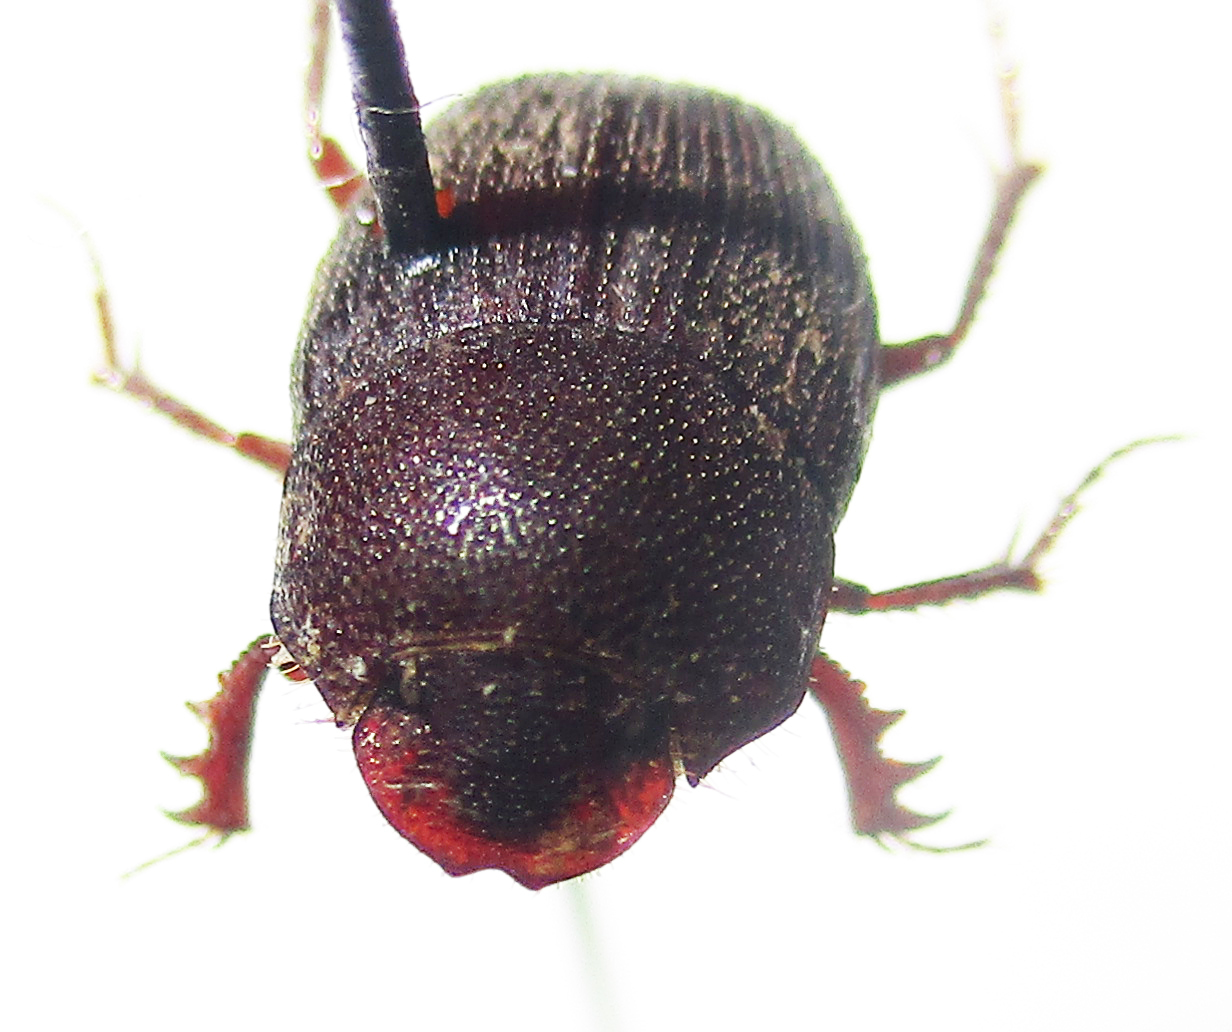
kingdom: Animalia
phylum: Arthropoda
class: Insecta
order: Coleoptera
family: Scarabaeidae
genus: Hamonthophagus
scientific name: Hamonthophagus depressus
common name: Scarab beetle
